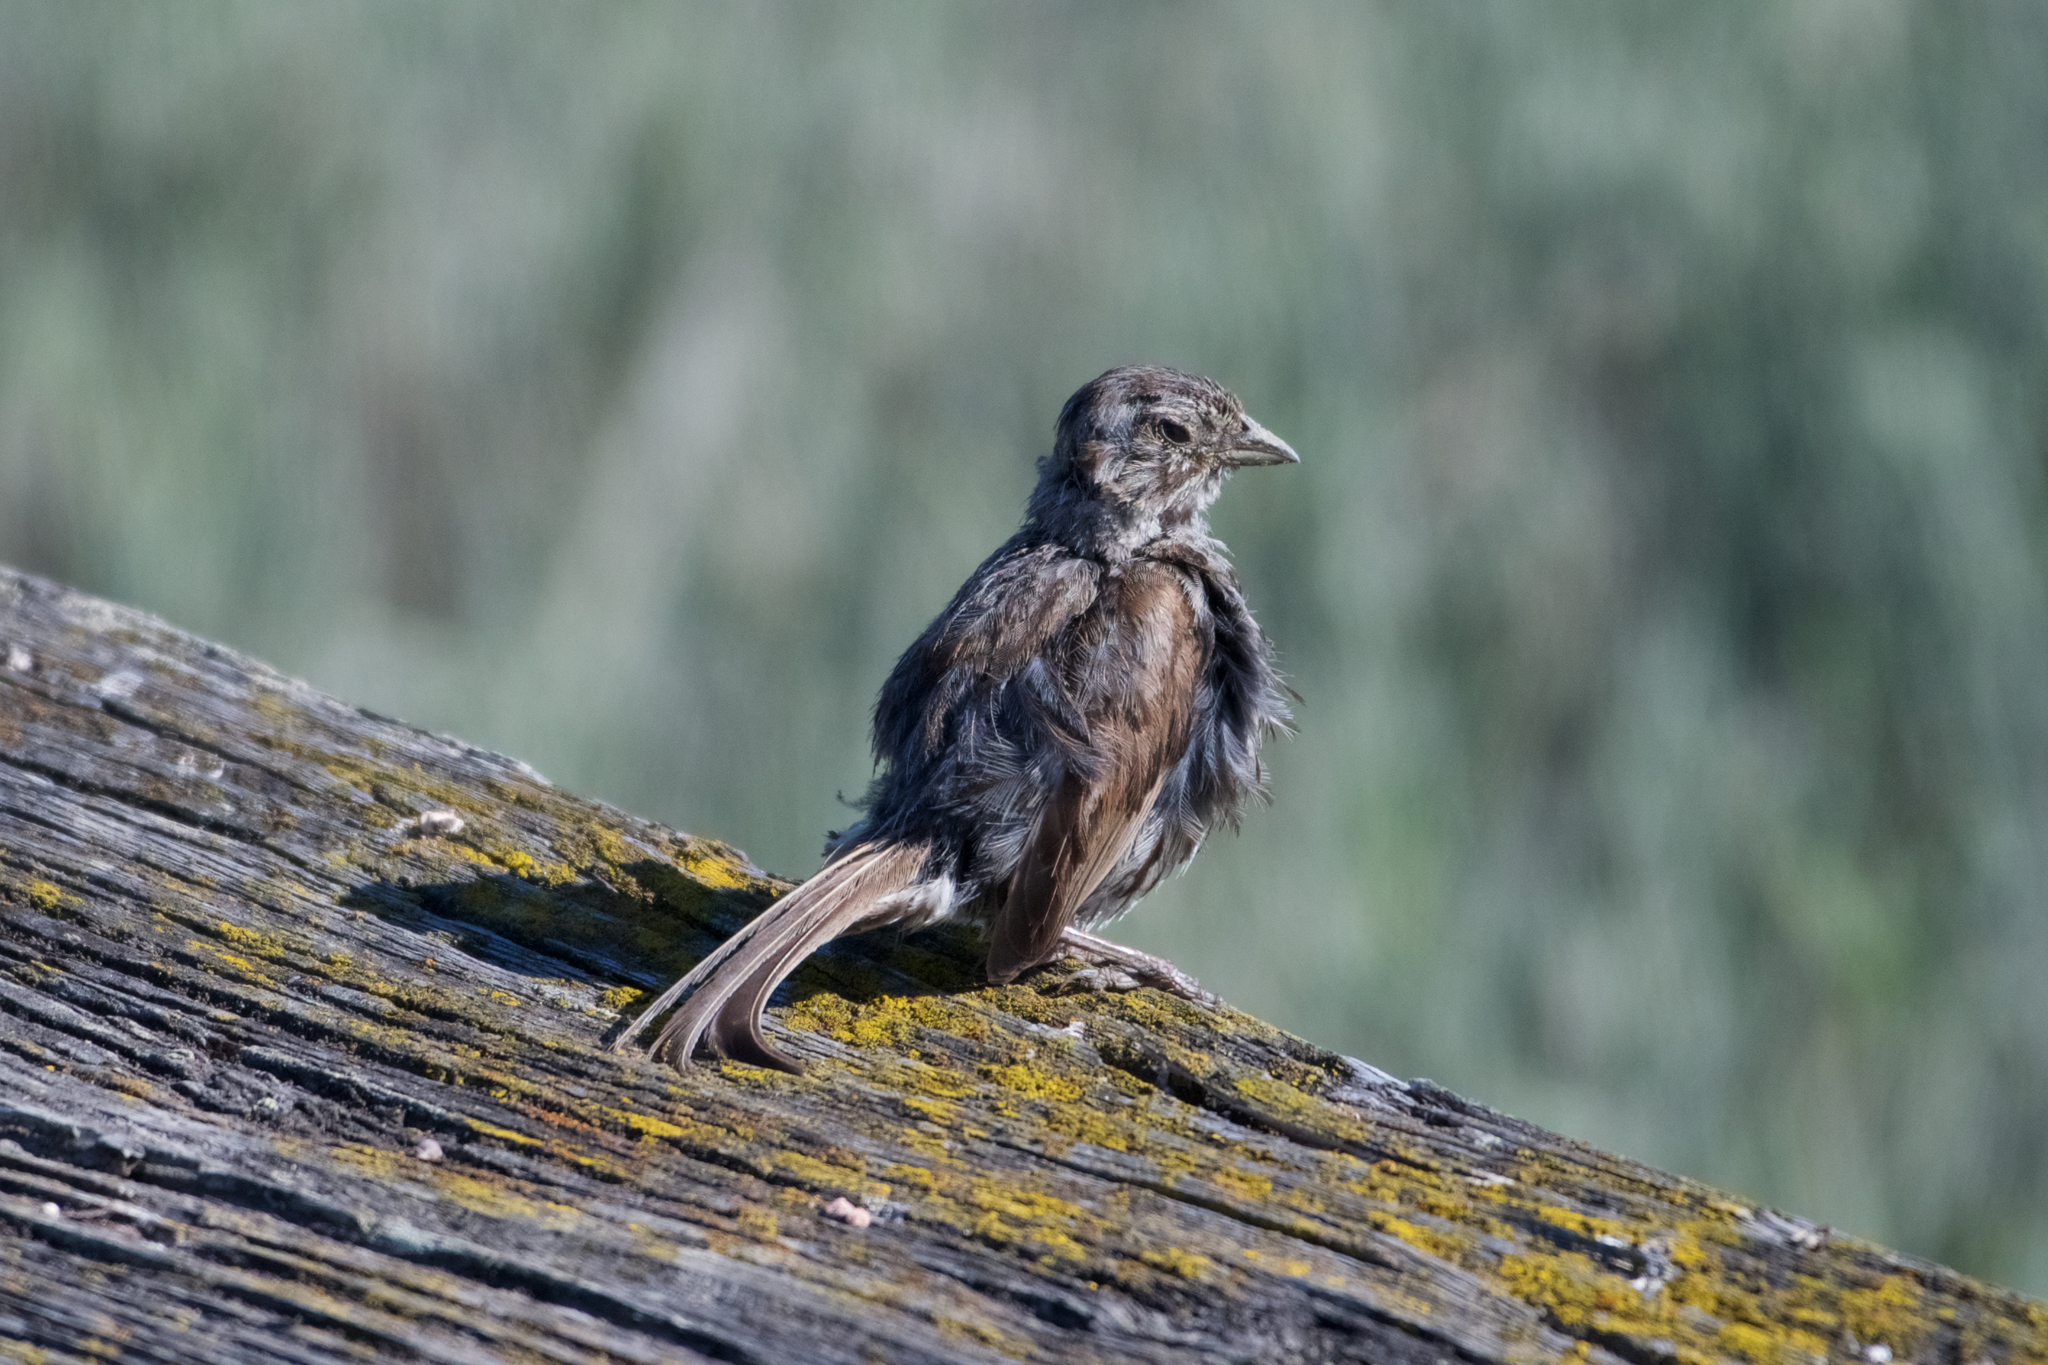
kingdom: Animalia
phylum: Chordata
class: Aves
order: Passeriformes
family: Passerellidae
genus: Melospiza
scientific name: Melospiza melodia
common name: Song sparrow
